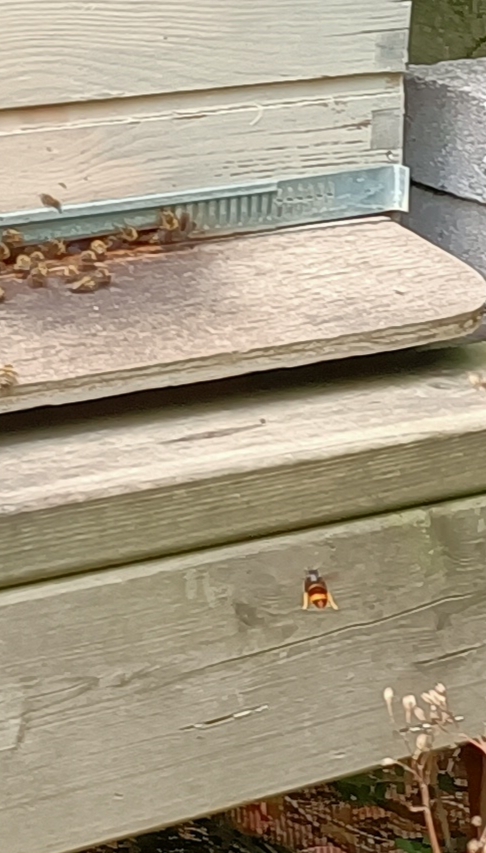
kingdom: Animalia
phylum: Arthropoda
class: Insecta
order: Hymenoptera
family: Vespidae
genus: Vespa
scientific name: Vespa velutina
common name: Asian hornet
